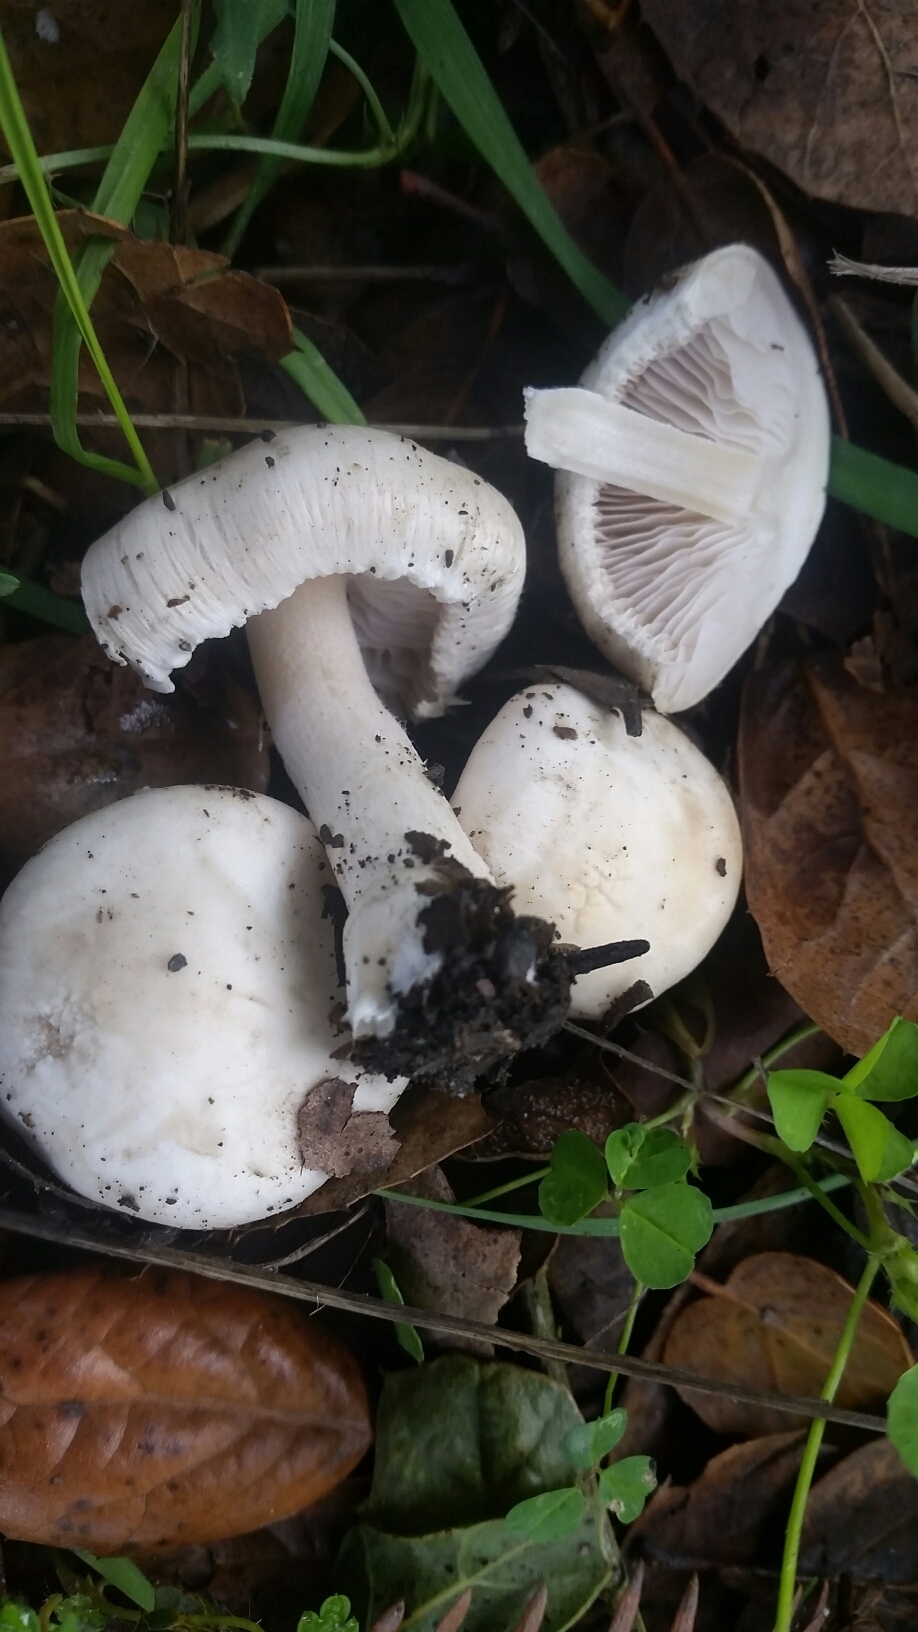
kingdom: Fungi
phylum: Basidiomycota
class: Agaricomycetes
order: Agaricales
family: Inocybaceae
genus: Inocybe
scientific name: Inocybe insinuata
